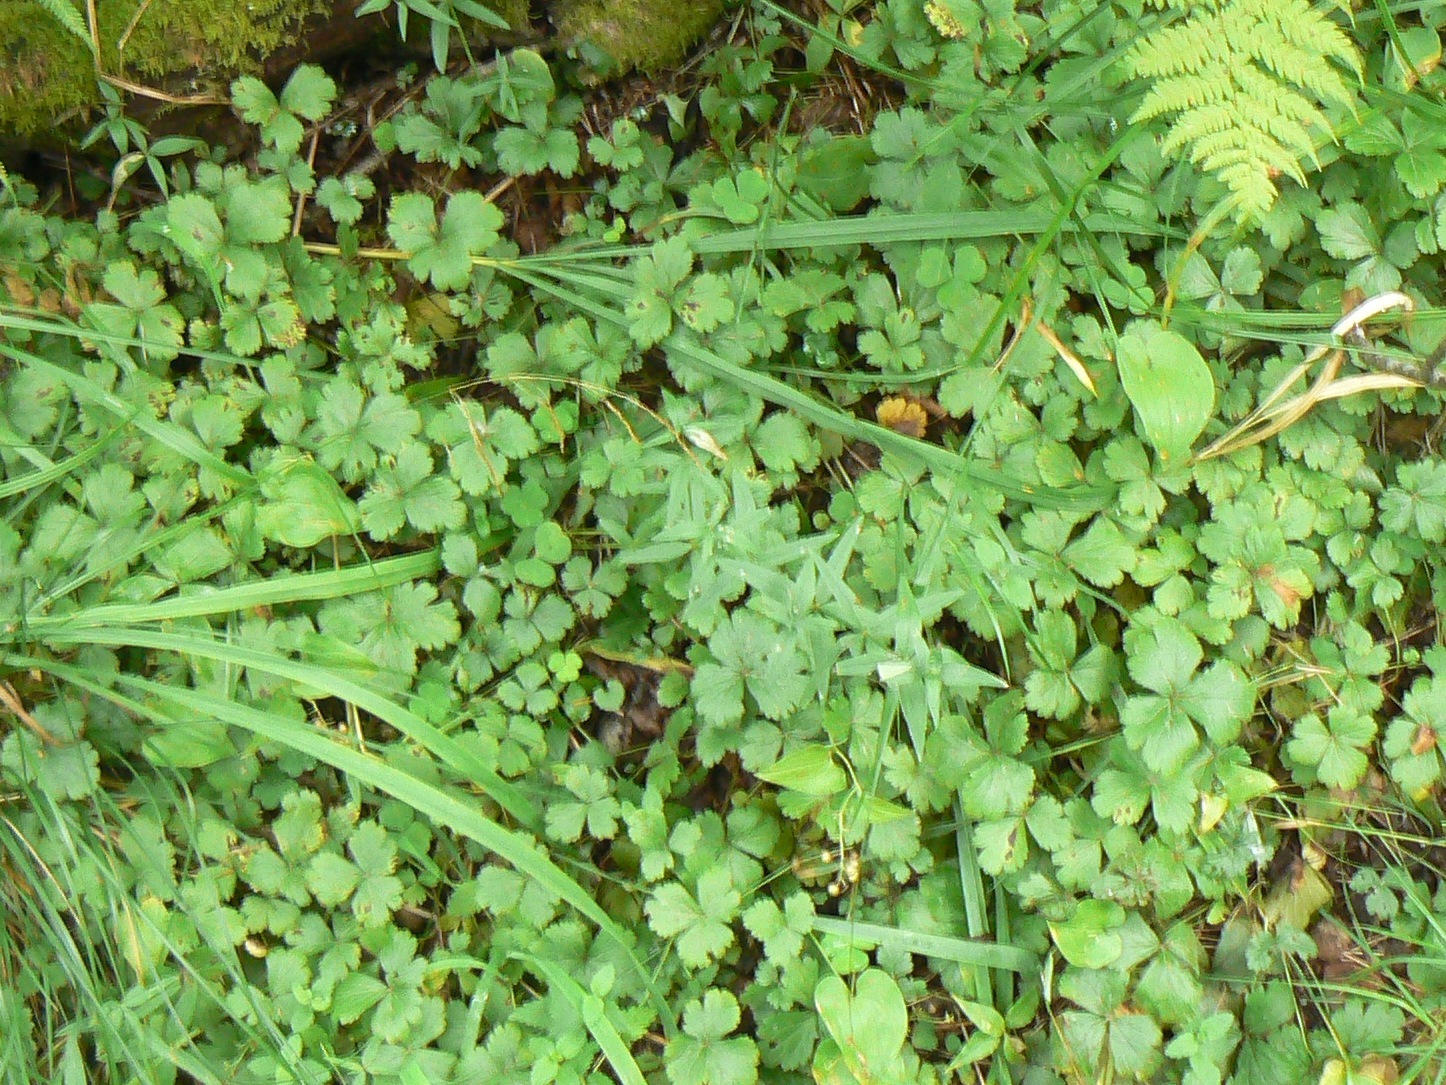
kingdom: Plantae
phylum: Tracheophyta
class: Magnoliopsida
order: Rosales
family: Rosaceae
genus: Geum
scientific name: Geum ternatum
